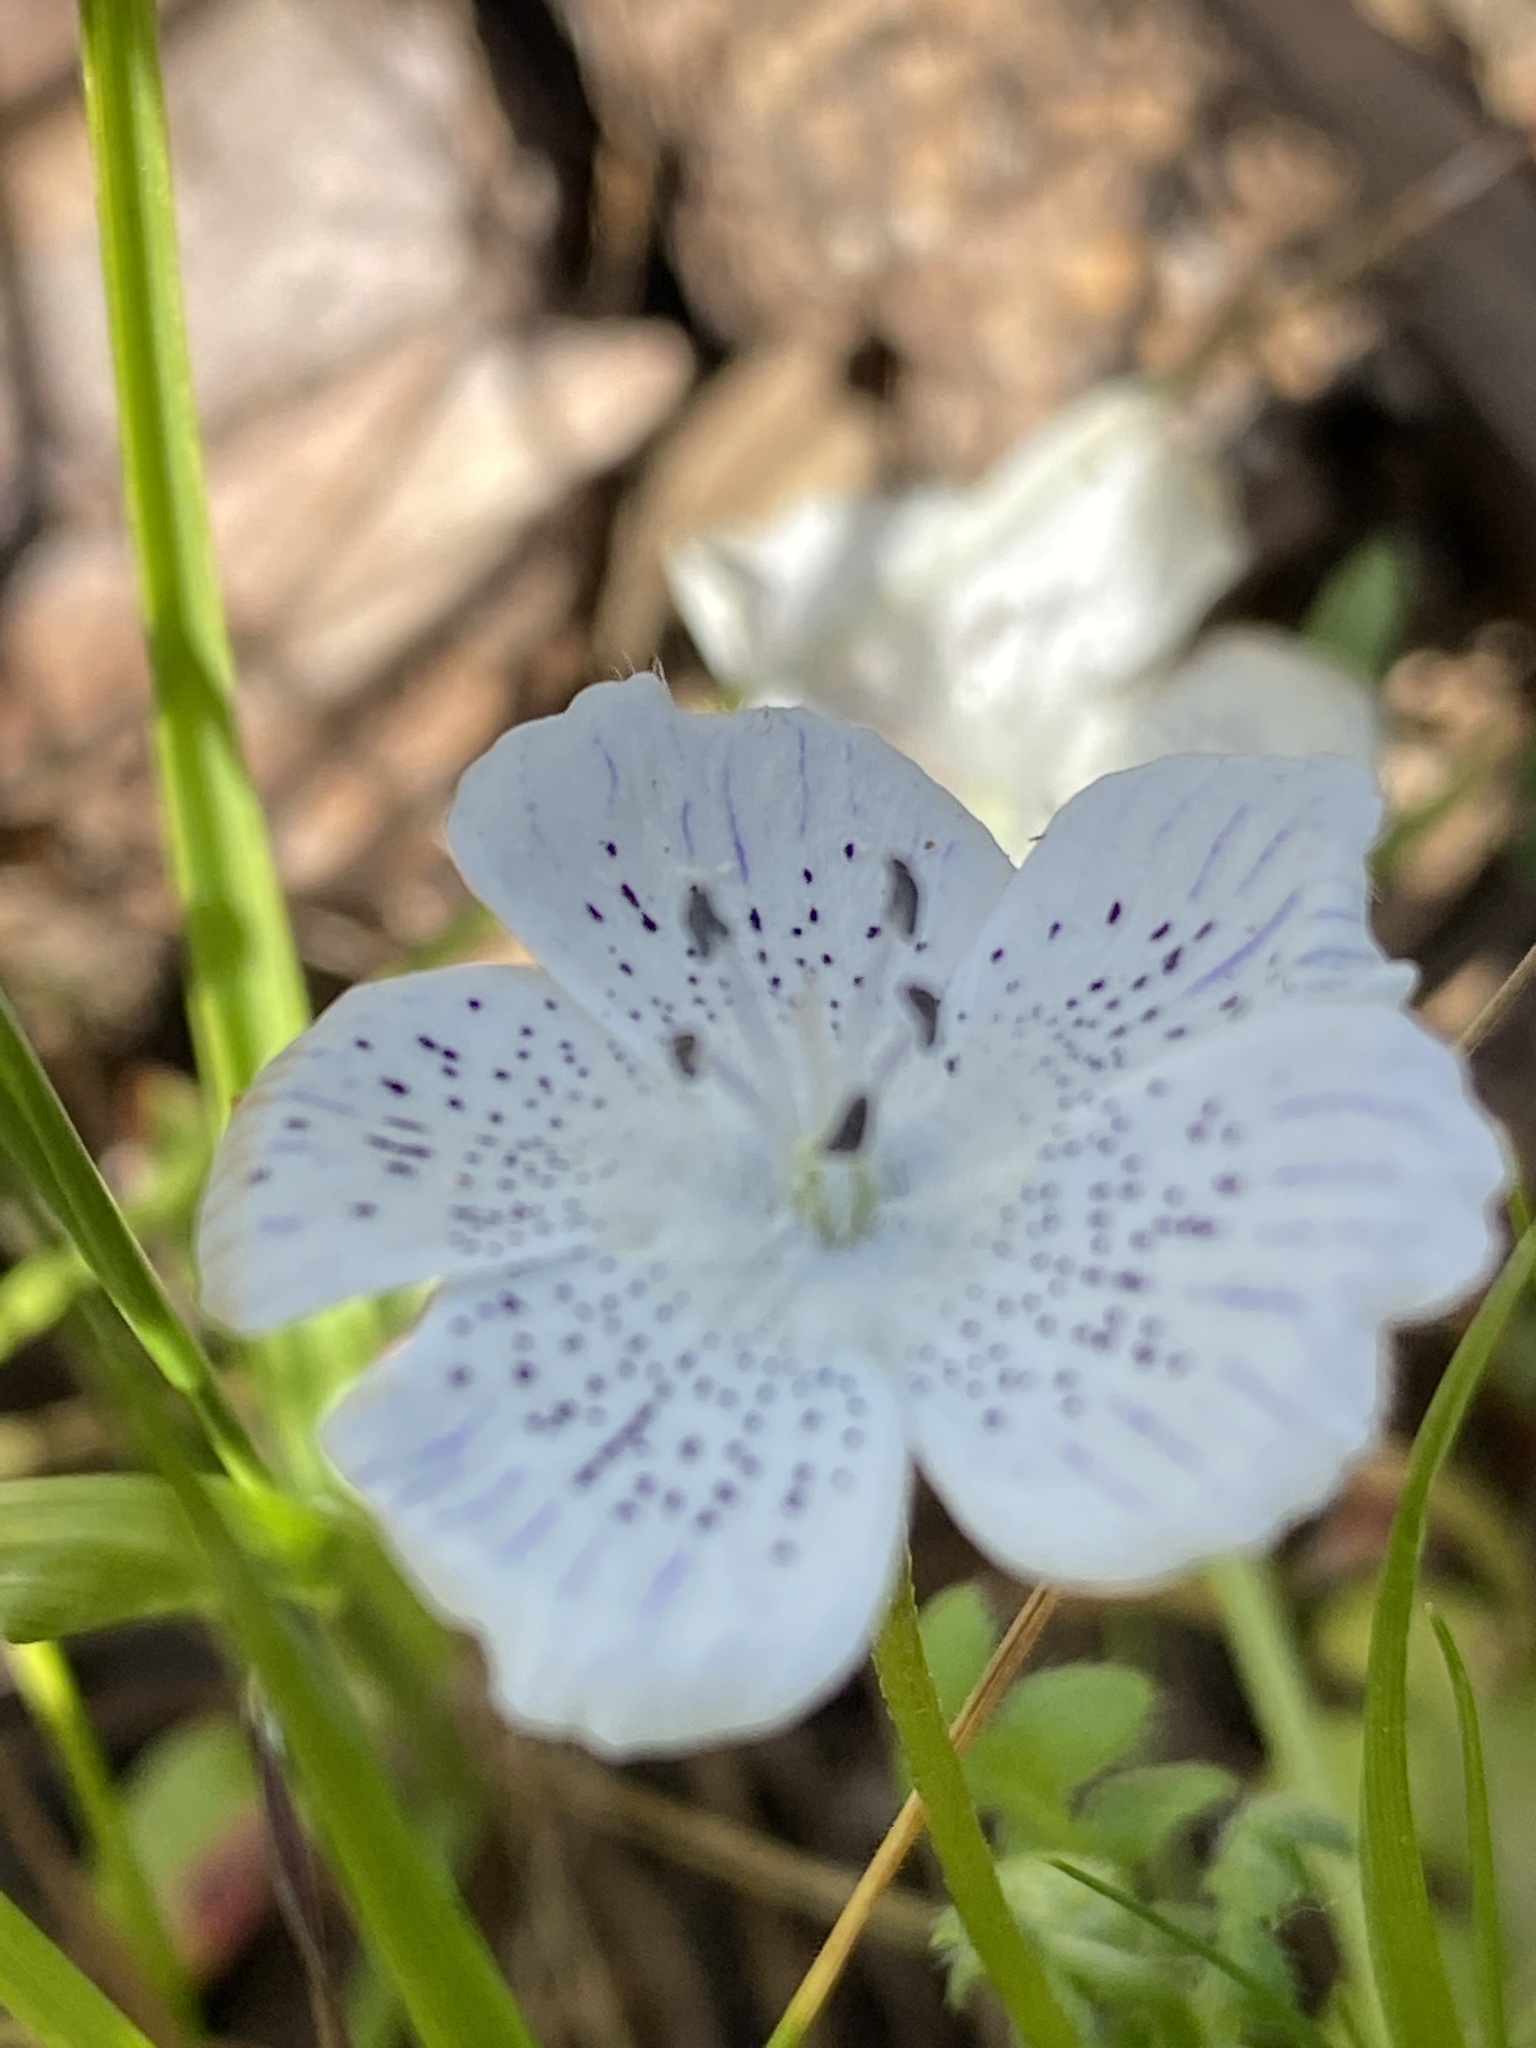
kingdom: Plantae
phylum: Tracheophyta
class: Magnoliopsida
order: Boraginales
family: Hydrophyllaceae
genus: Nemophila
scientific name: Nemophila heterophylla
